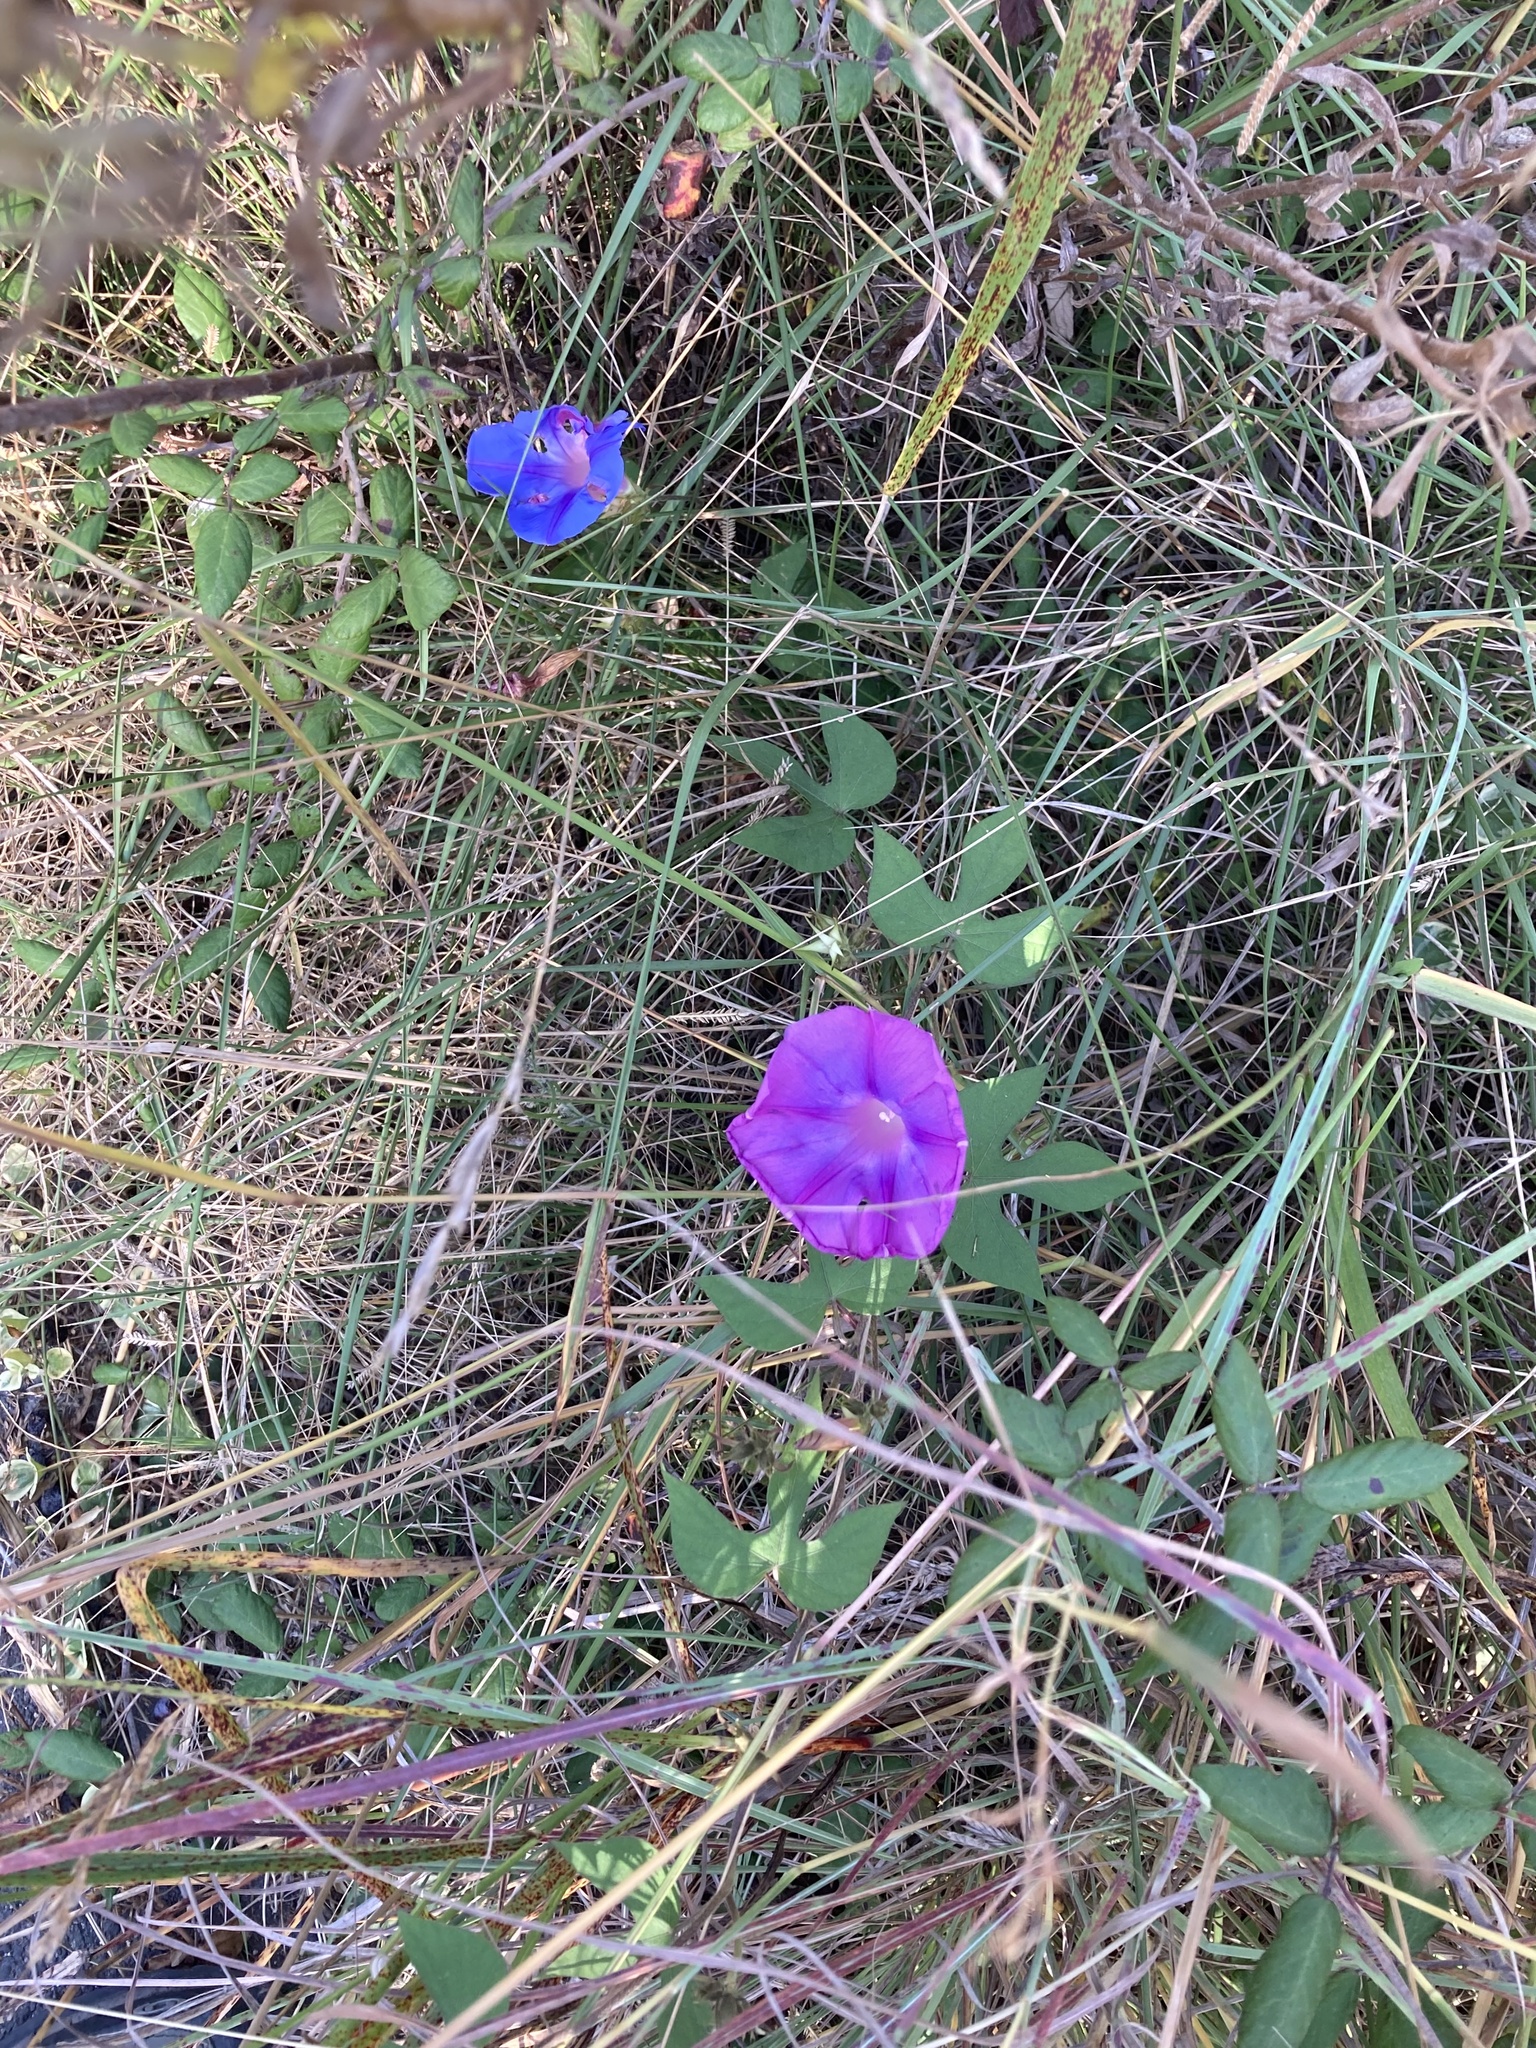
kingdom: Plantae
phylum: Tracheophyta
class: Magnoliopsida
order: Solanales
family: Convolvulaceae
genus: Ipomoea
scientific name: Ipomoea indica
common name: Blue dawnflower
